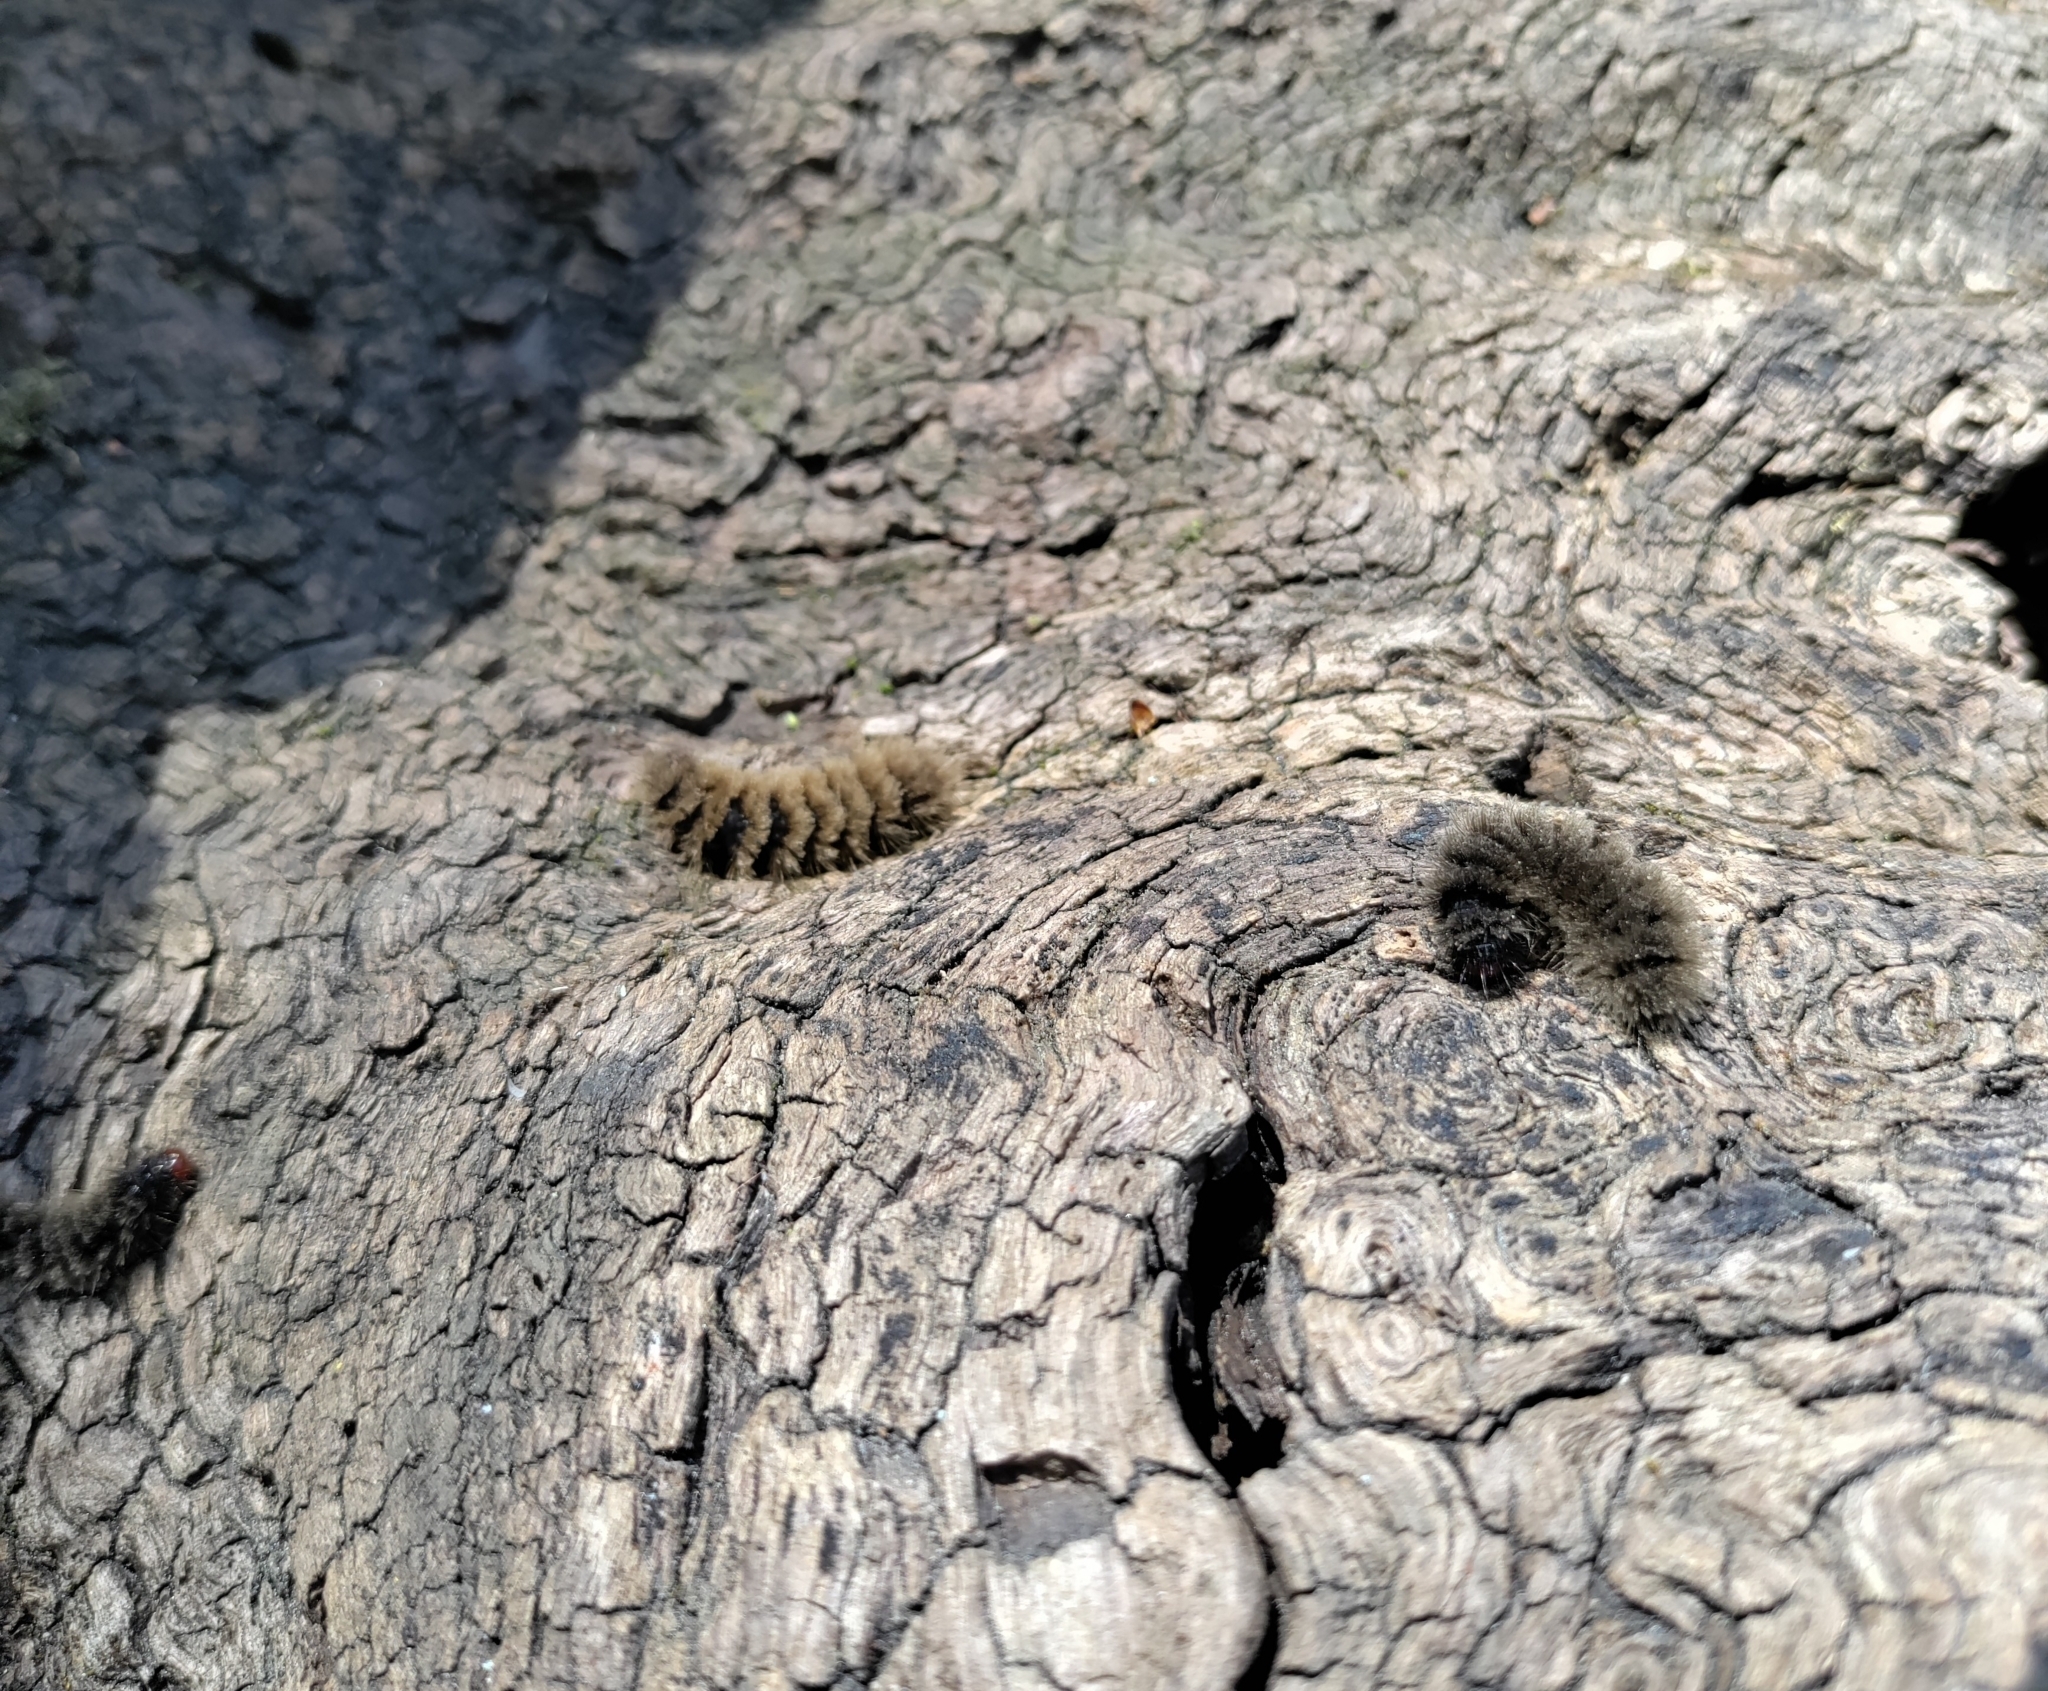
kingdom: Animalia
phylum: Arthropoda
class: Insecta
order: Lepidoptera
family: Erebidae
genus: Amata
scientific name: Amata phegea
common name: Nine-spotted
